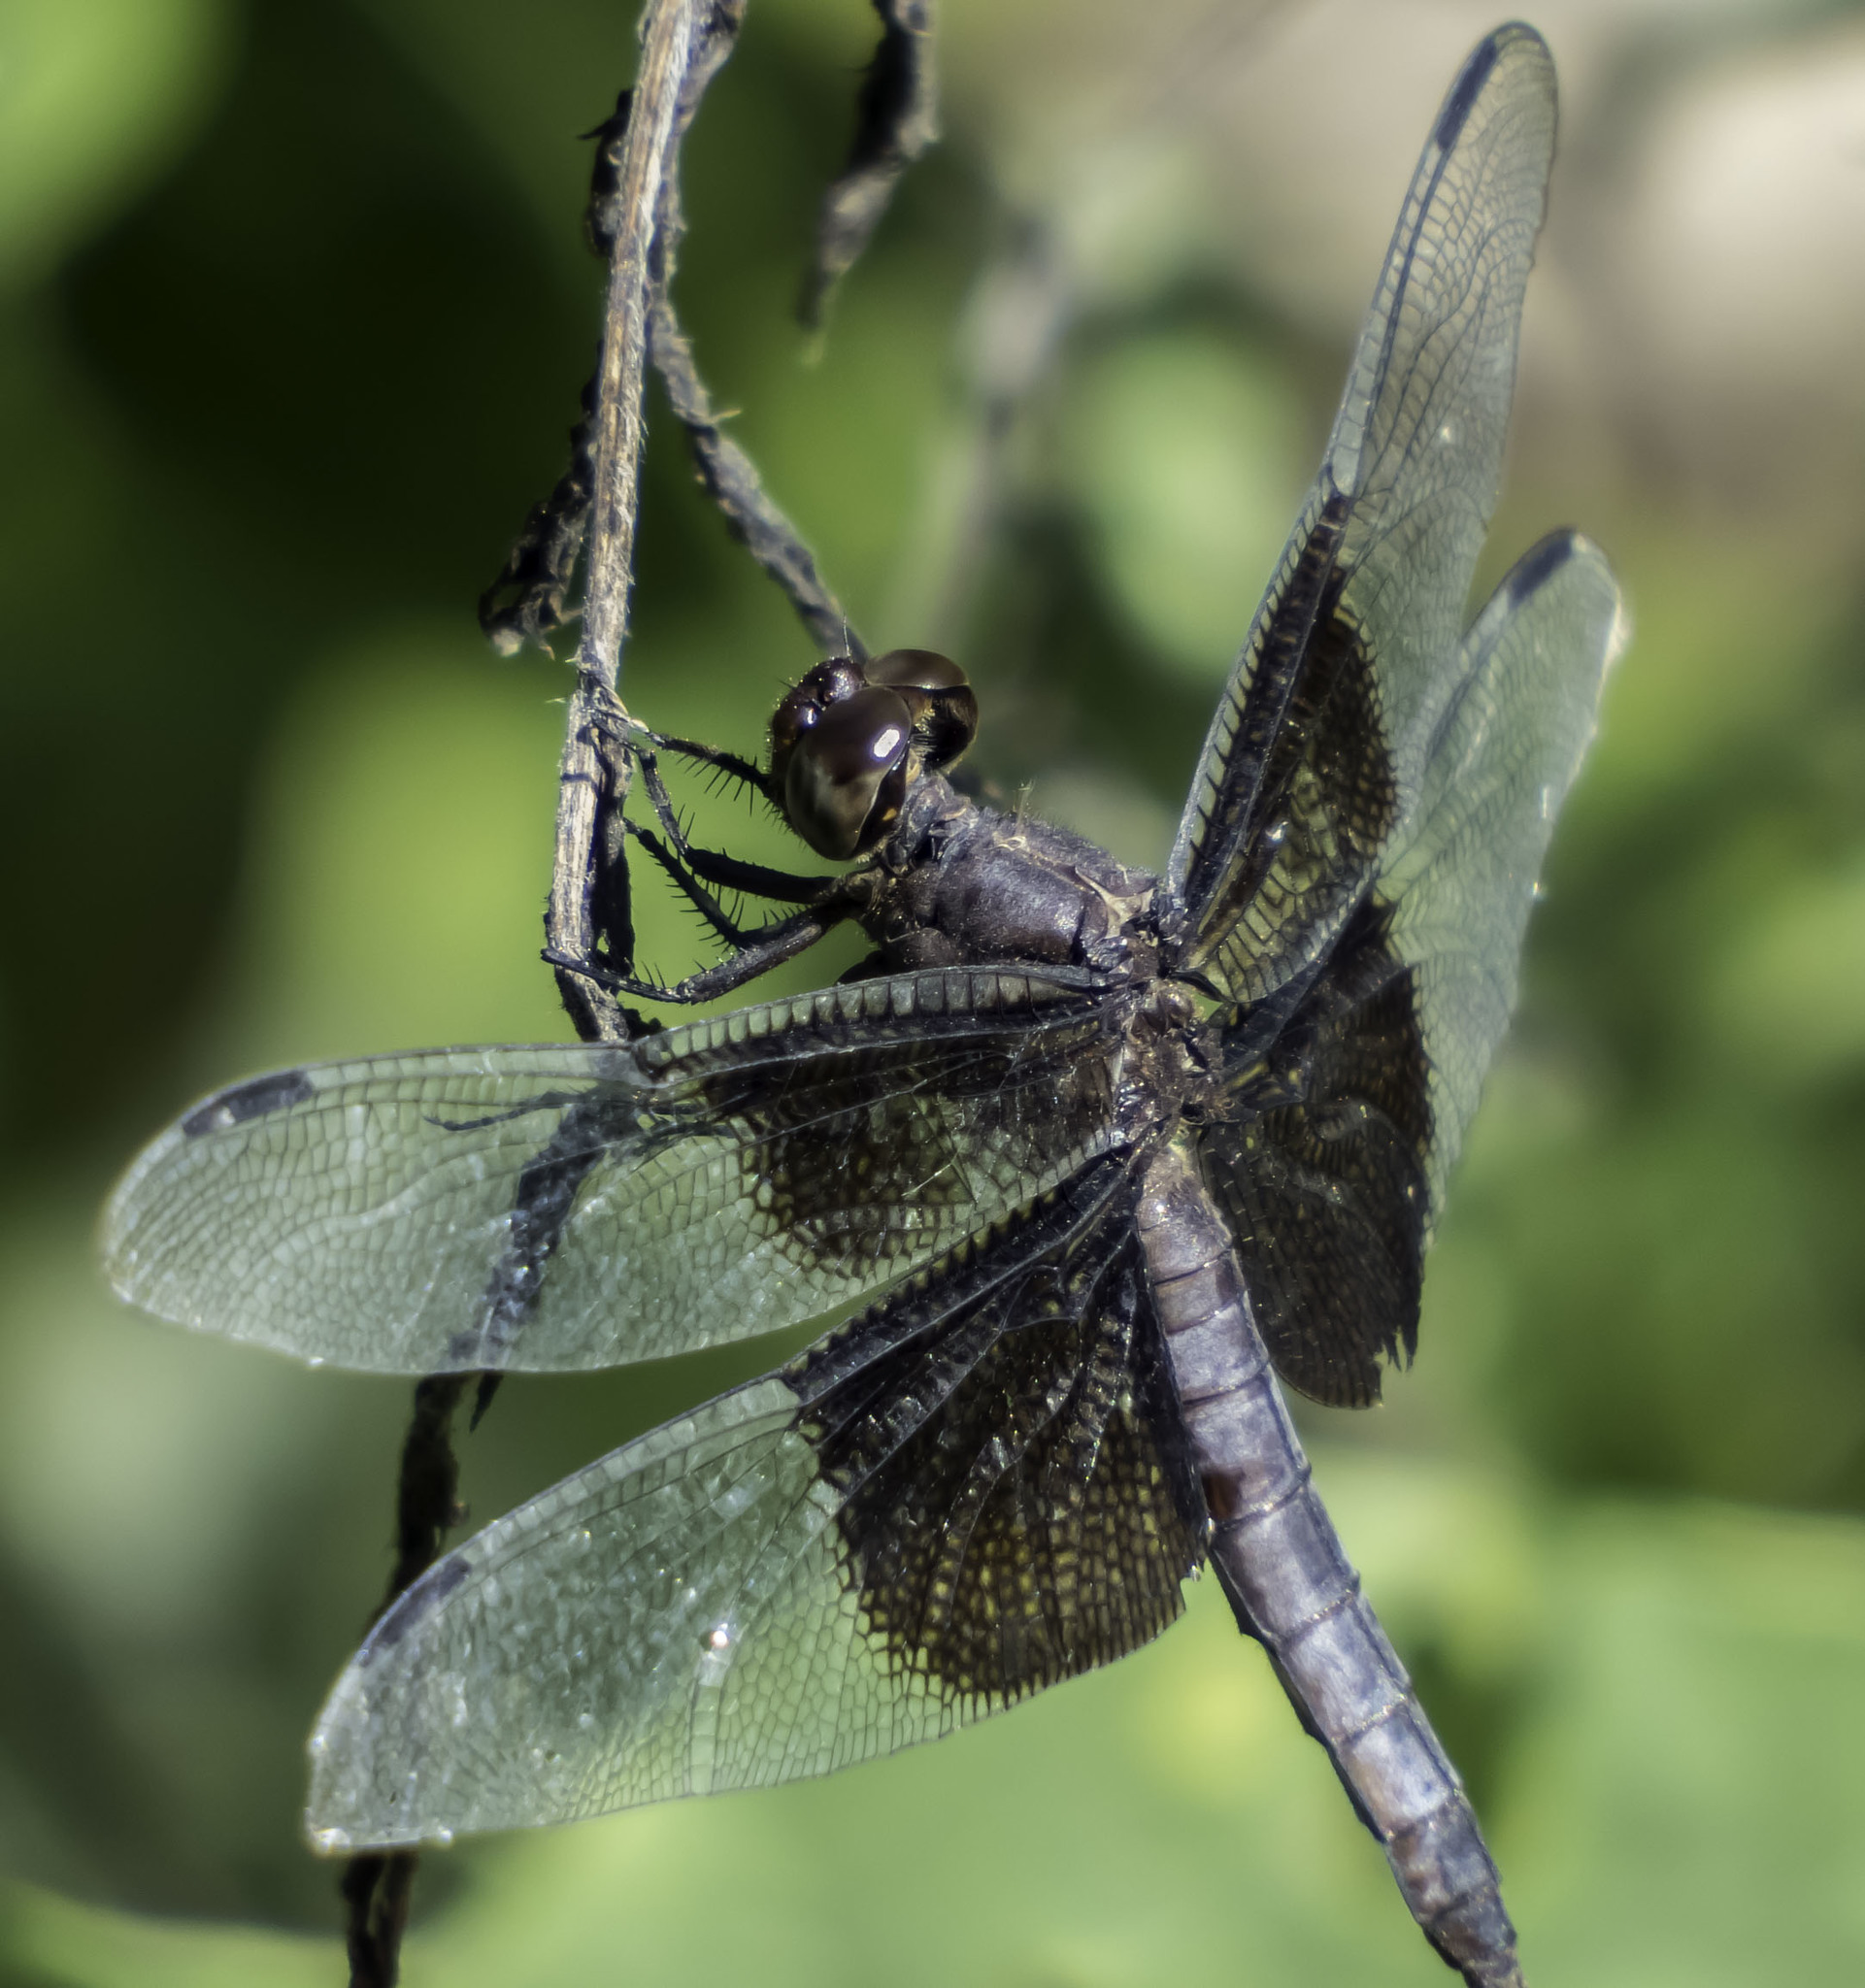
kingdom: Animalia
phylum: Arthropoda
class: Insecta
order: Odonata
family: Libellulidae
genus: Libellula
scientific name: Libellula luctuosa
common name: Widow skimmer
